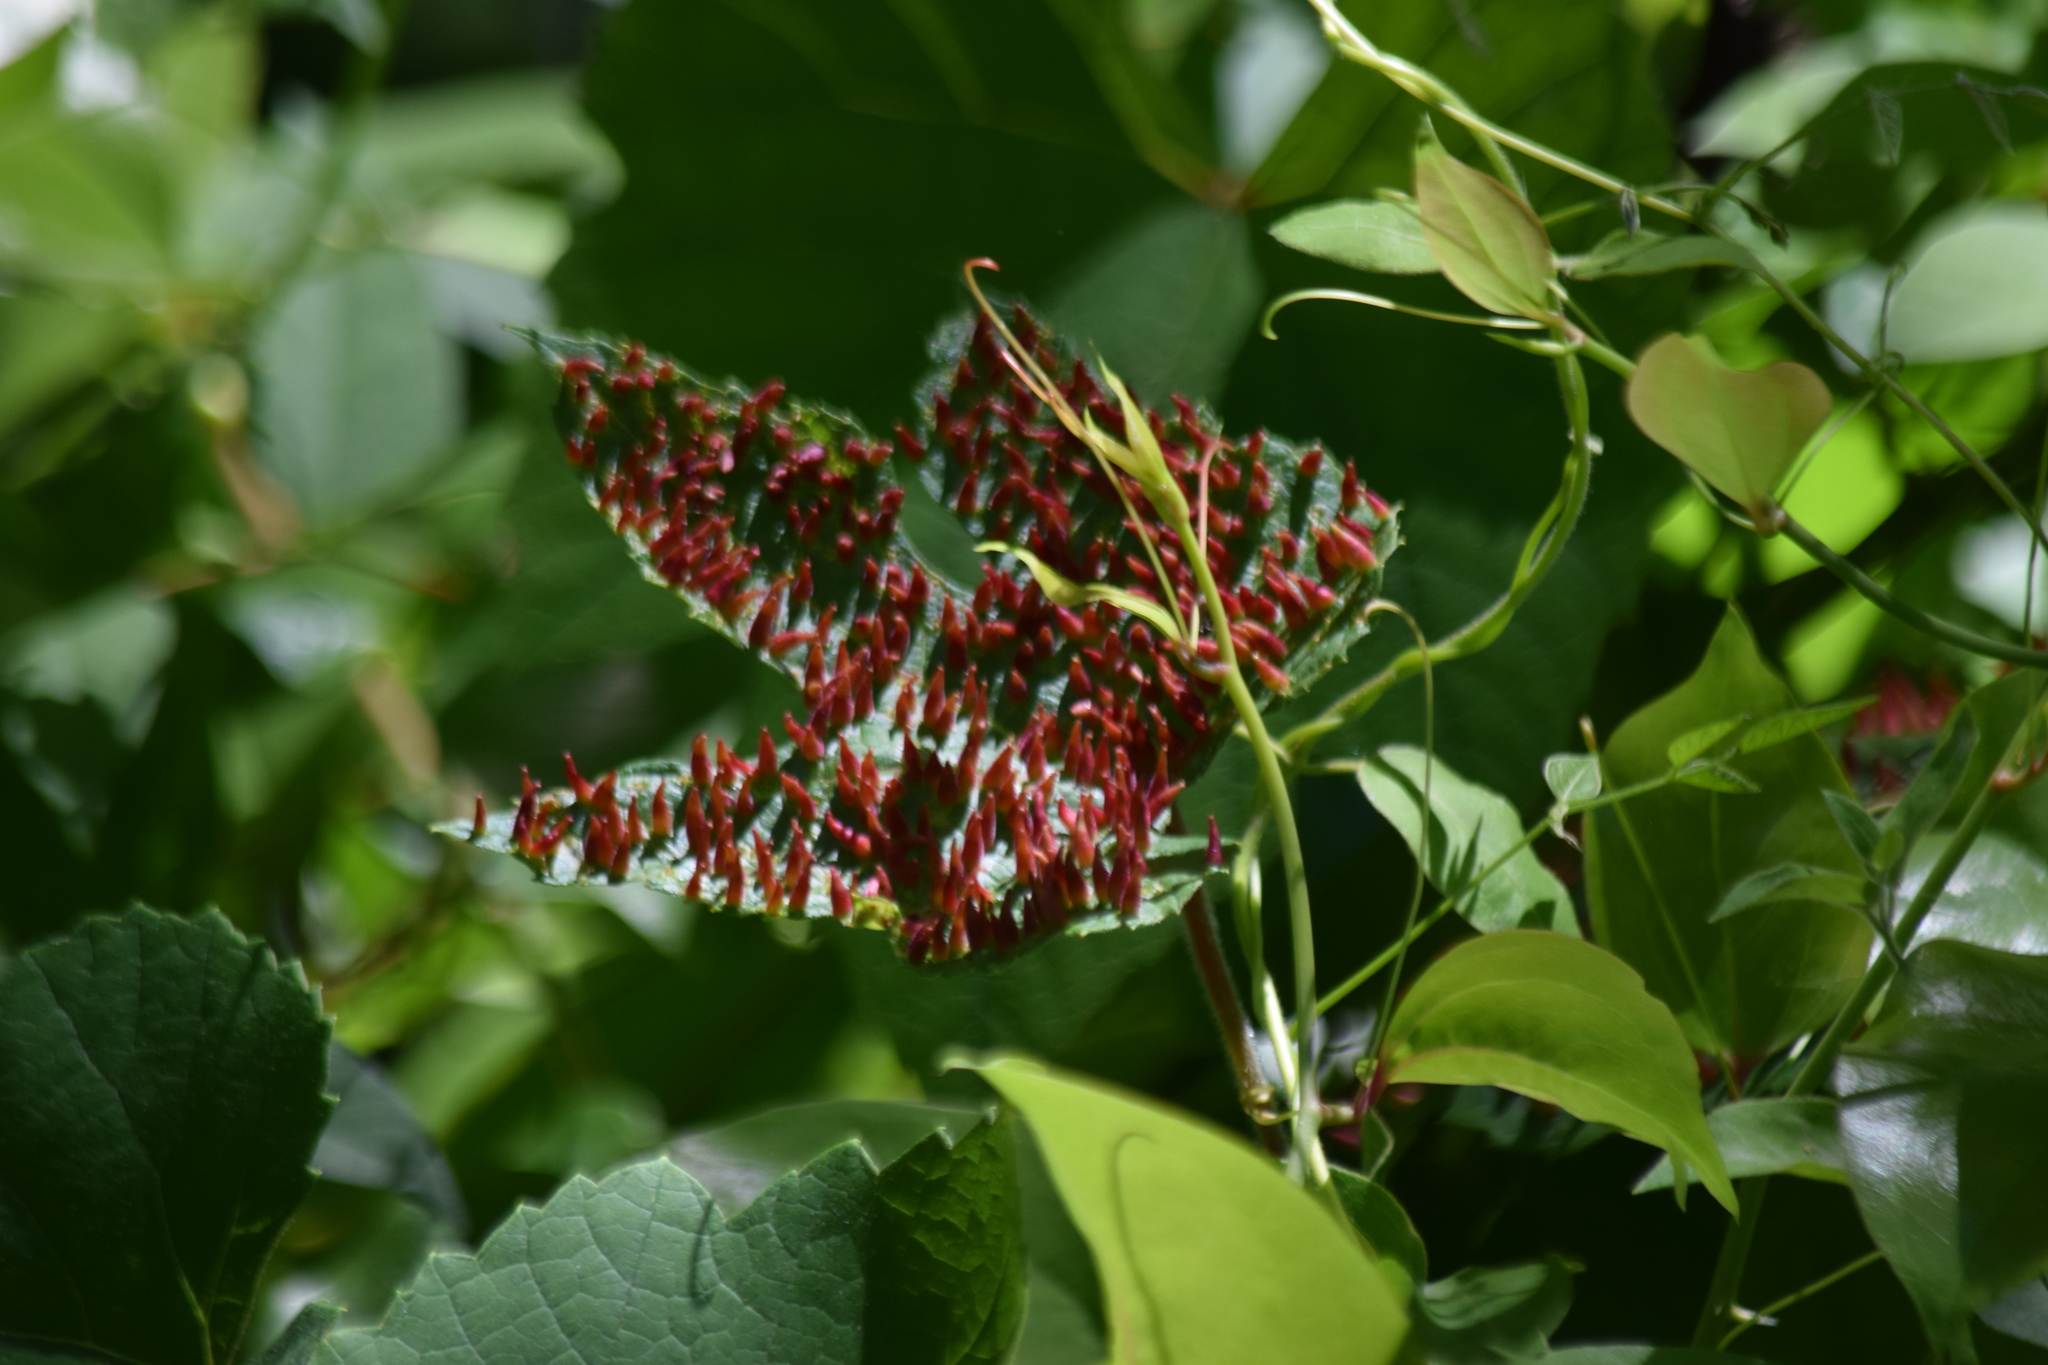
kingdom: Animalia
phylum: Arthropoda
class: Insecta
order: Diptera
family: Cecidomyiidae
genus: Ampelomyia
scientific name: Ampelomyia viticola
